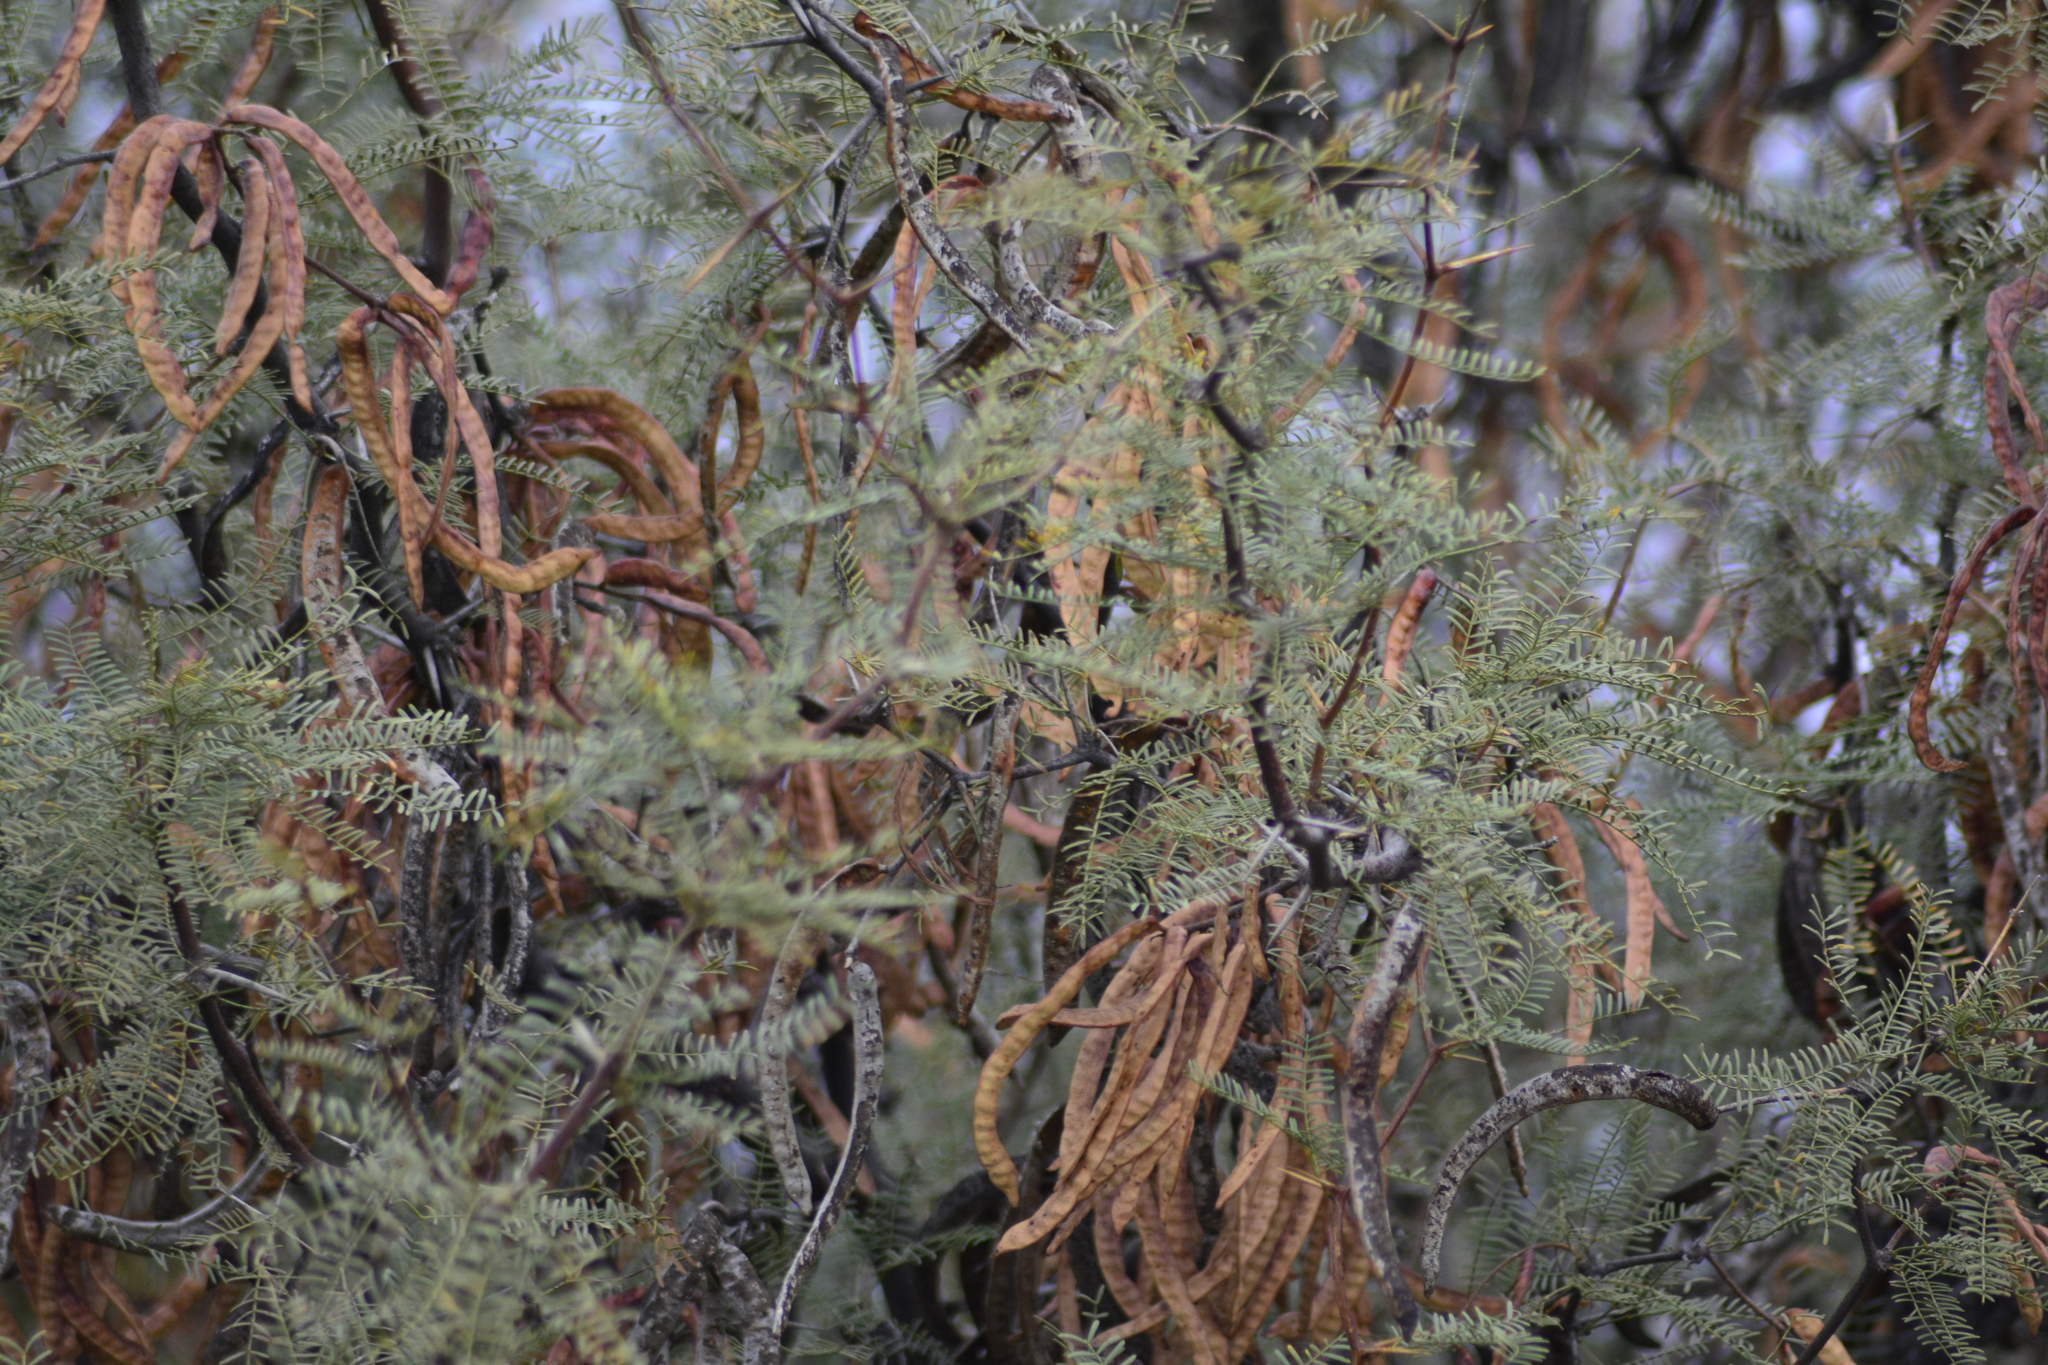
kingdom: Plantae
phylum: Tracheophyta
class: Magnoliopsida
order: Fabales
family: Fabaceae
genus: Prosopis
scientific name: Prosopis alpataco
